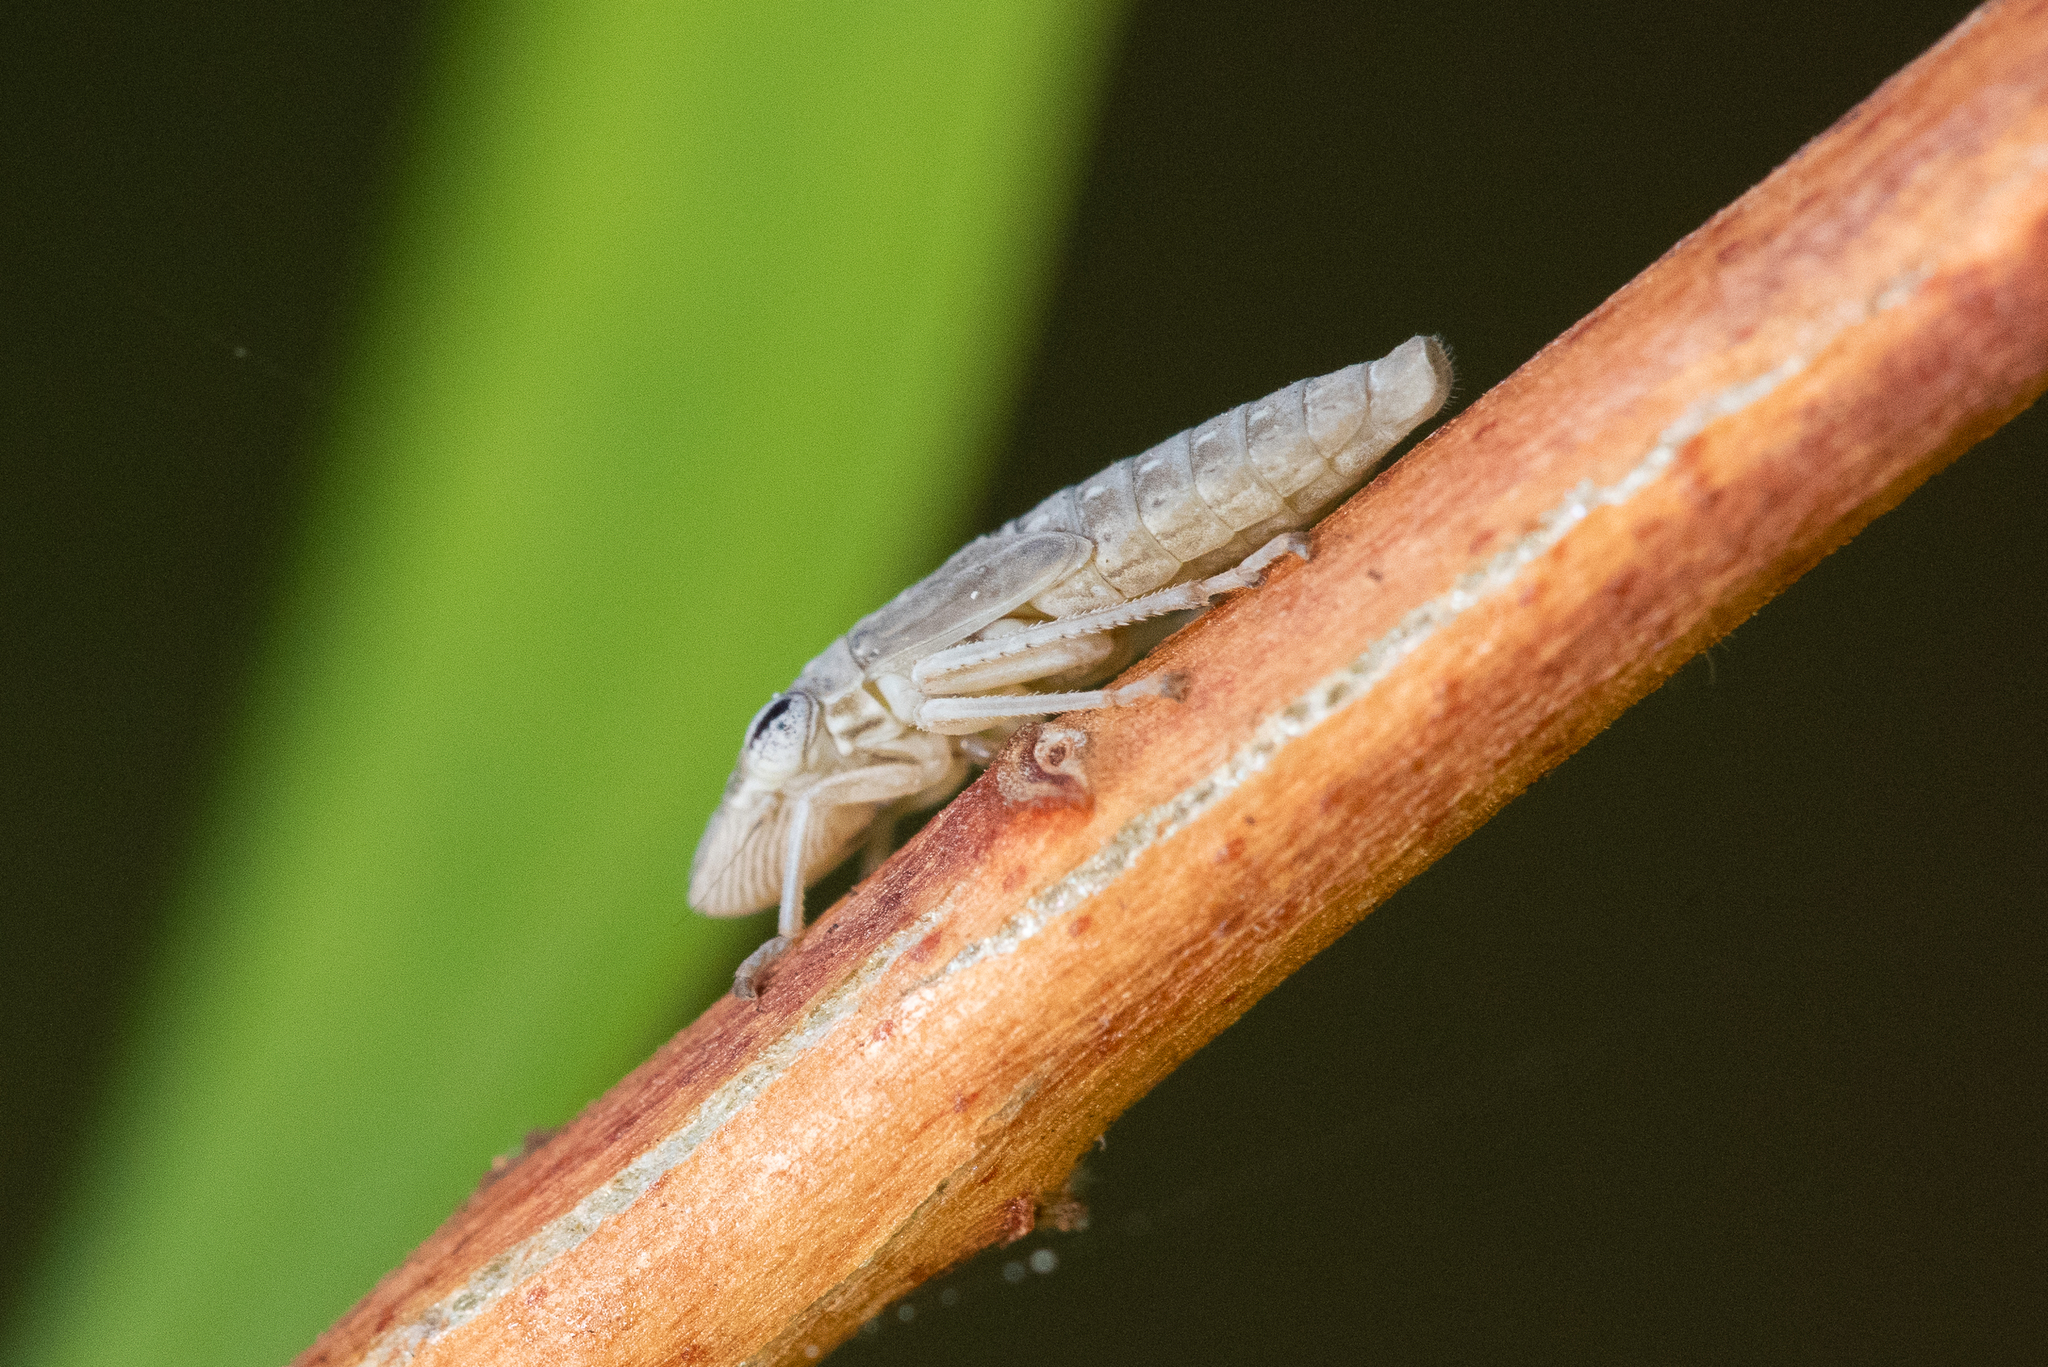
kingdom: Animalia
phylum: Arthropoda
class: Insecta
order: Hemiptera
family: Cicadellidae
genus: Homalodisca
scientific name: Homalodisca
